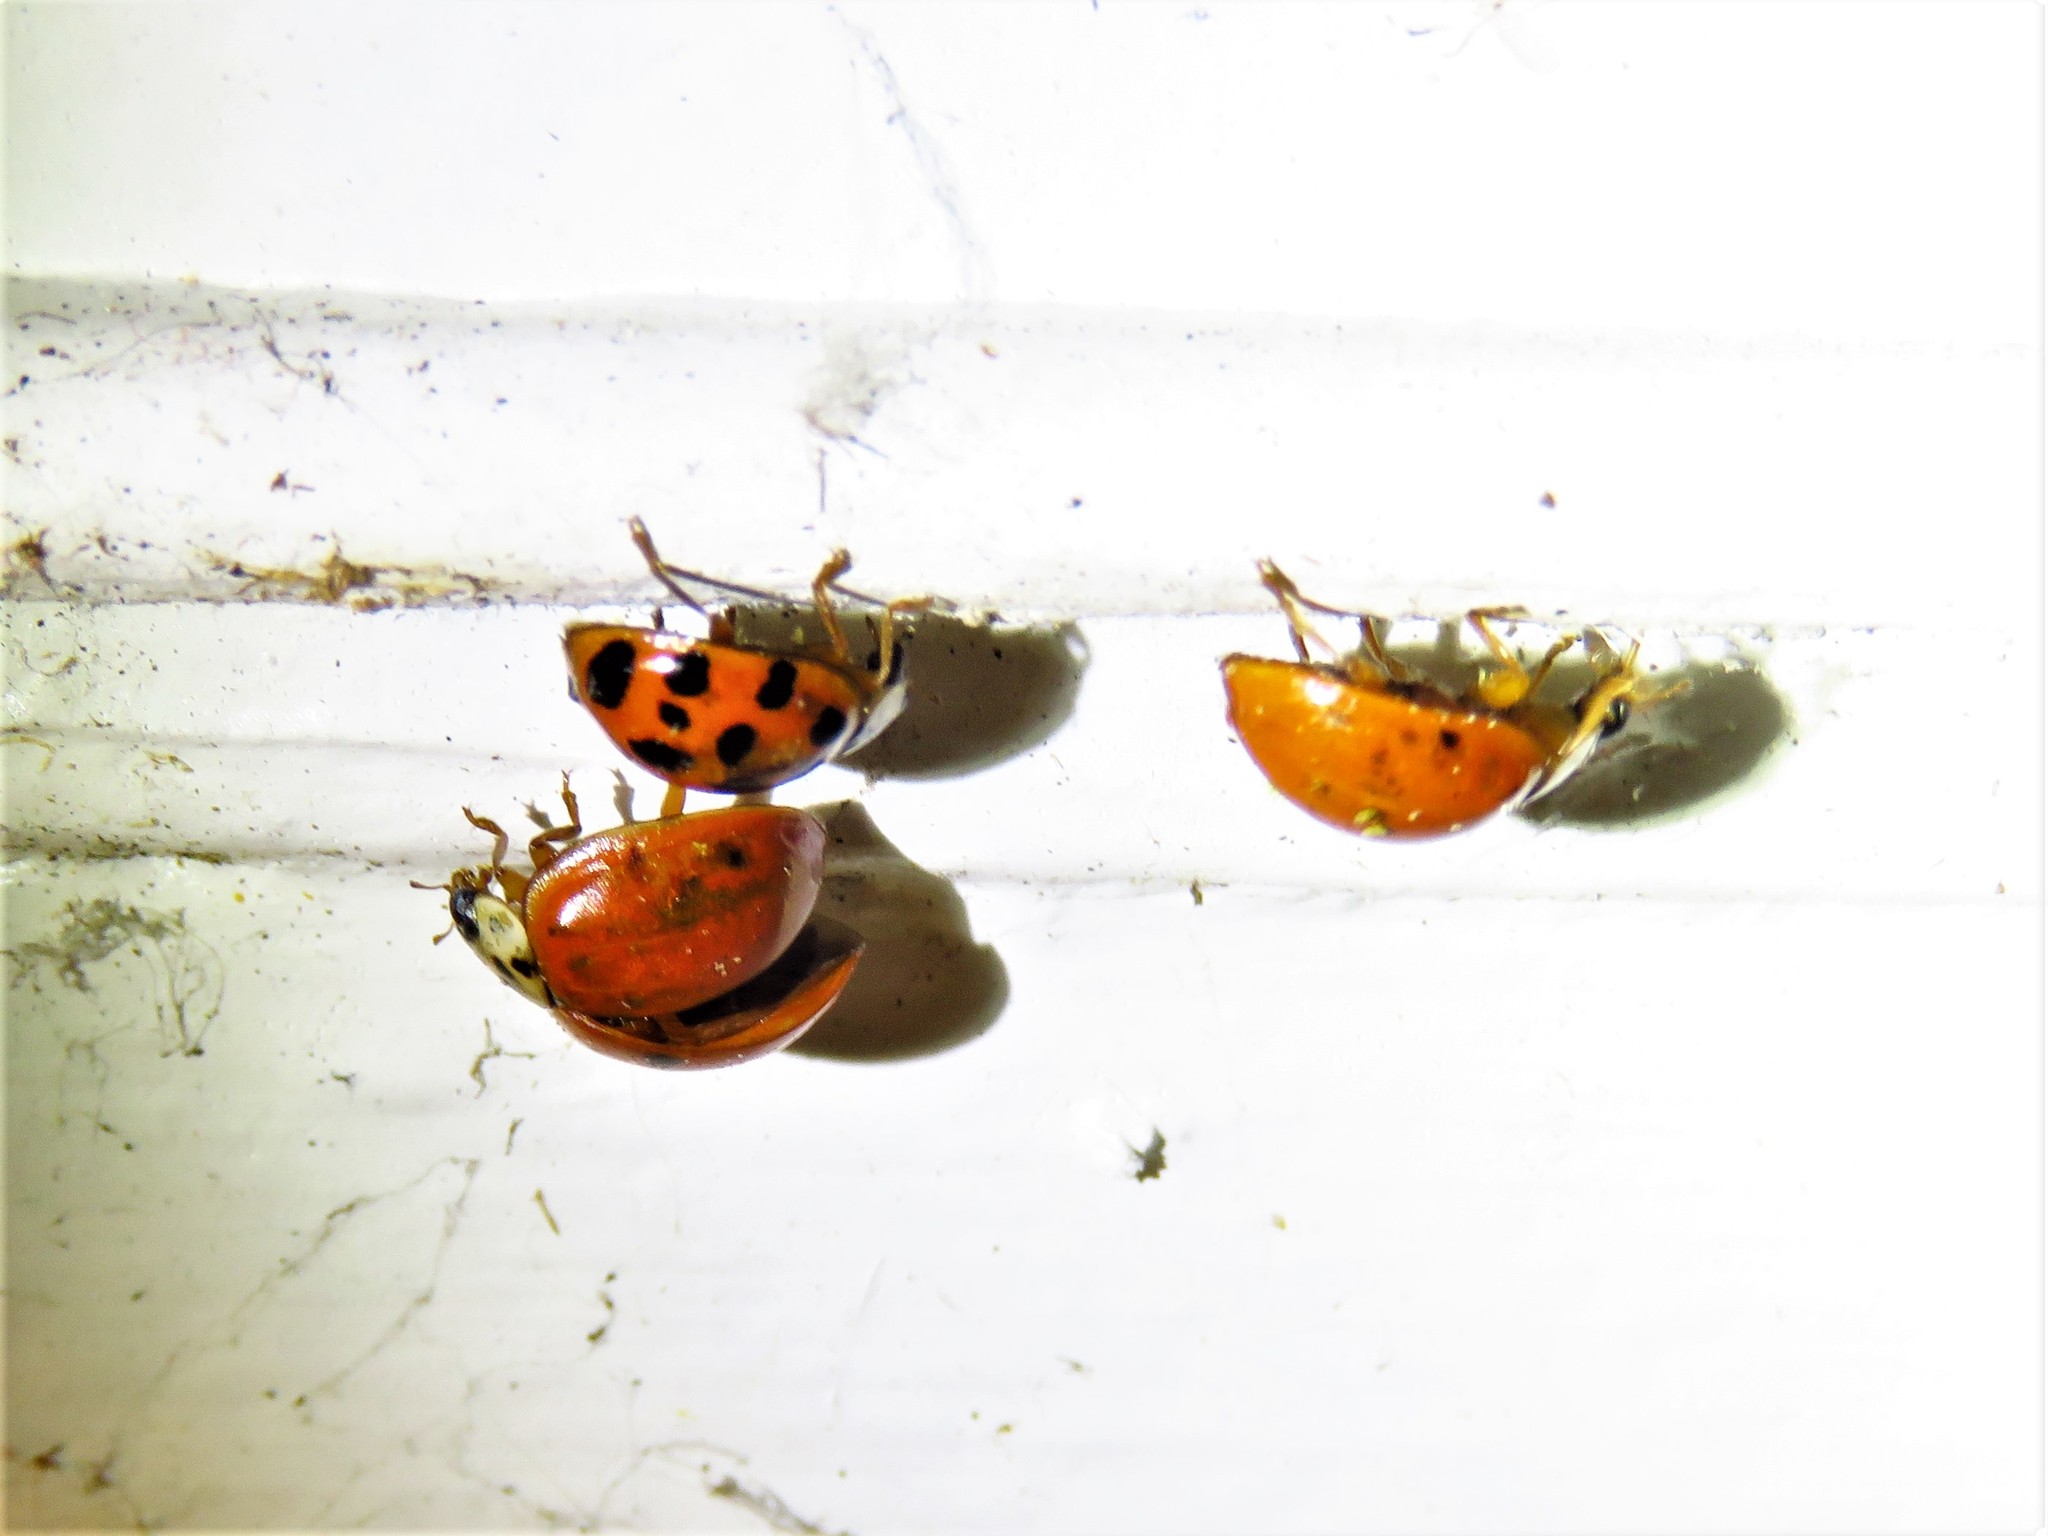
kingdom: Animalia
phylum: Arthropoda
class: Insecta
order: Coleoptera
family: Coccinellidae
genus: Harmonia
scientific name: Harmonia axyridis
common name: Harlequin ladybird
